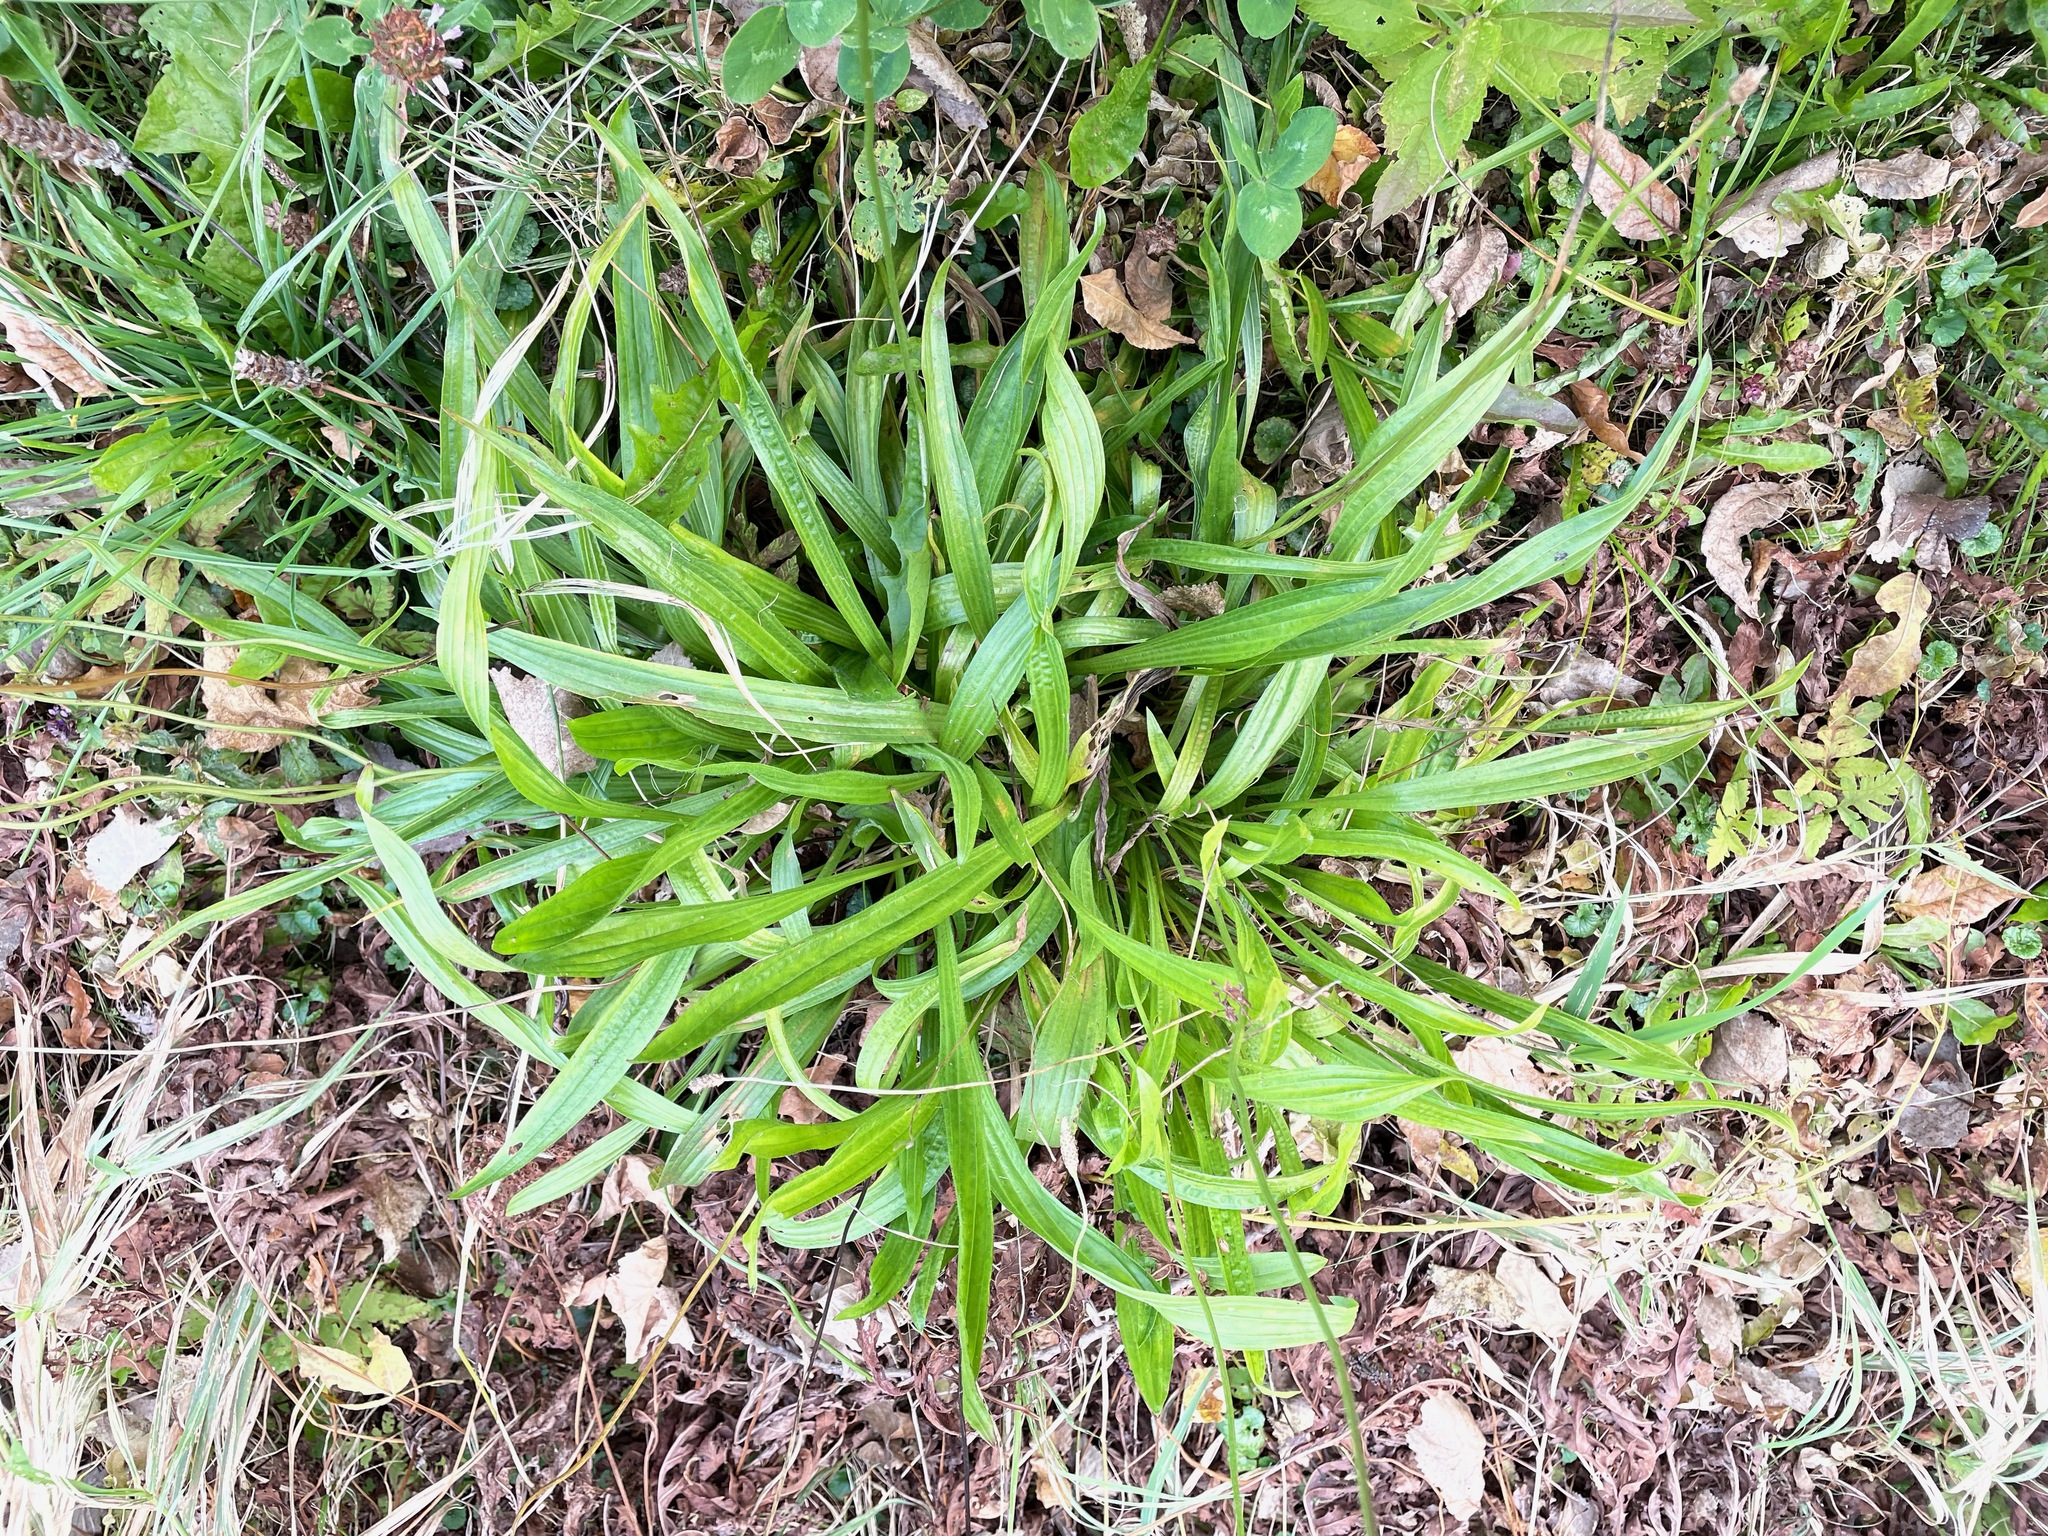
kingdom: Plantae
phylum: Tracheophyta
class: Magnoliopsida
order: Lamiales
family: Plantaginaceae
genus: Plantago
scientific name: Plantago lanceolata
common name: Ribwort plantain
